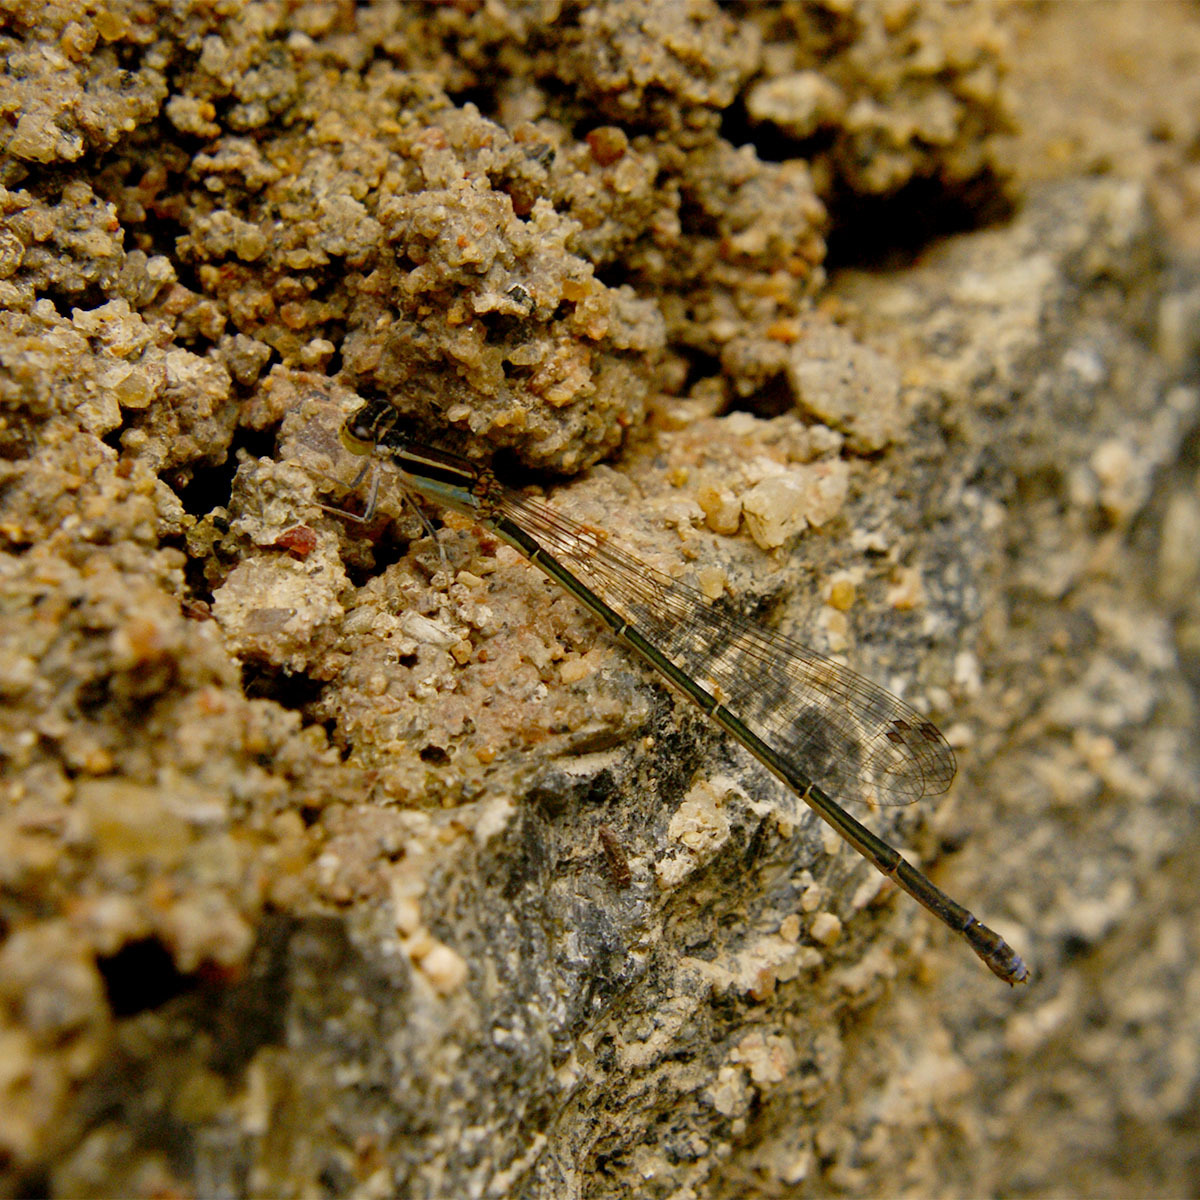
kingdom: Animalia
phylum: Arthropoda
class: Insecta
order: Odonata
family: Coenagrionidae
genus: Aciagrion
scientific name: Aciagrion occidentale
